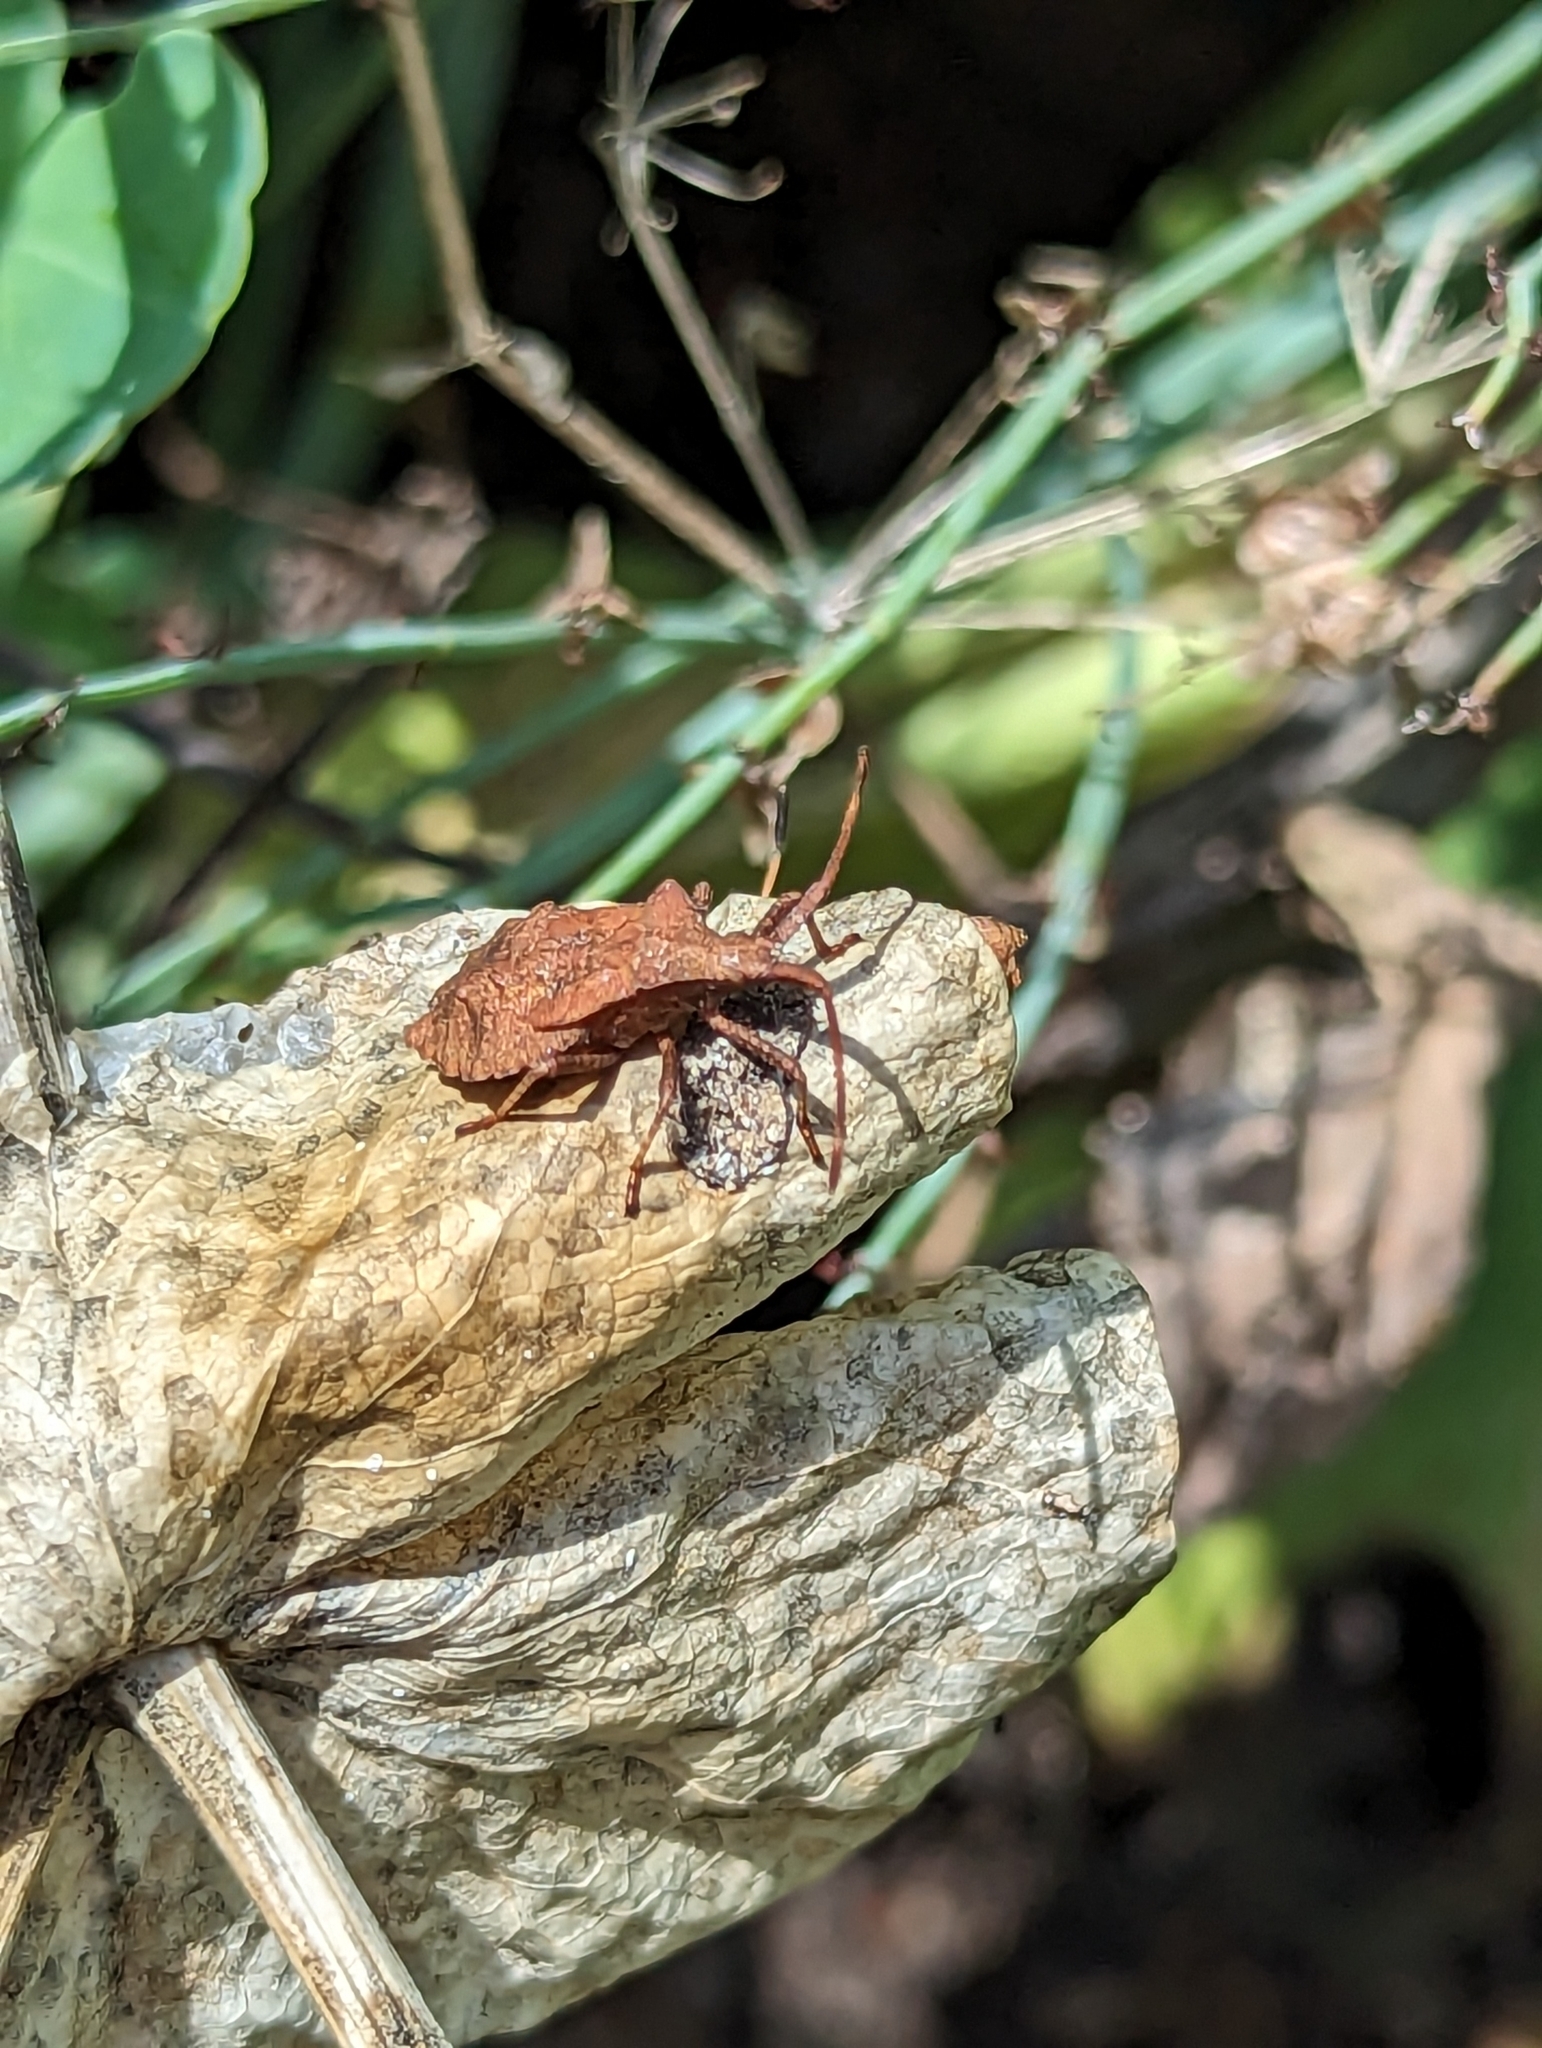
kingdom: Animalia
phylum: Arthropoda
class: Insecta
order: Hemiptera
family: Coreidae
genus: Coreus
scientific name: Coreus marginatus
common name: Dock bug
